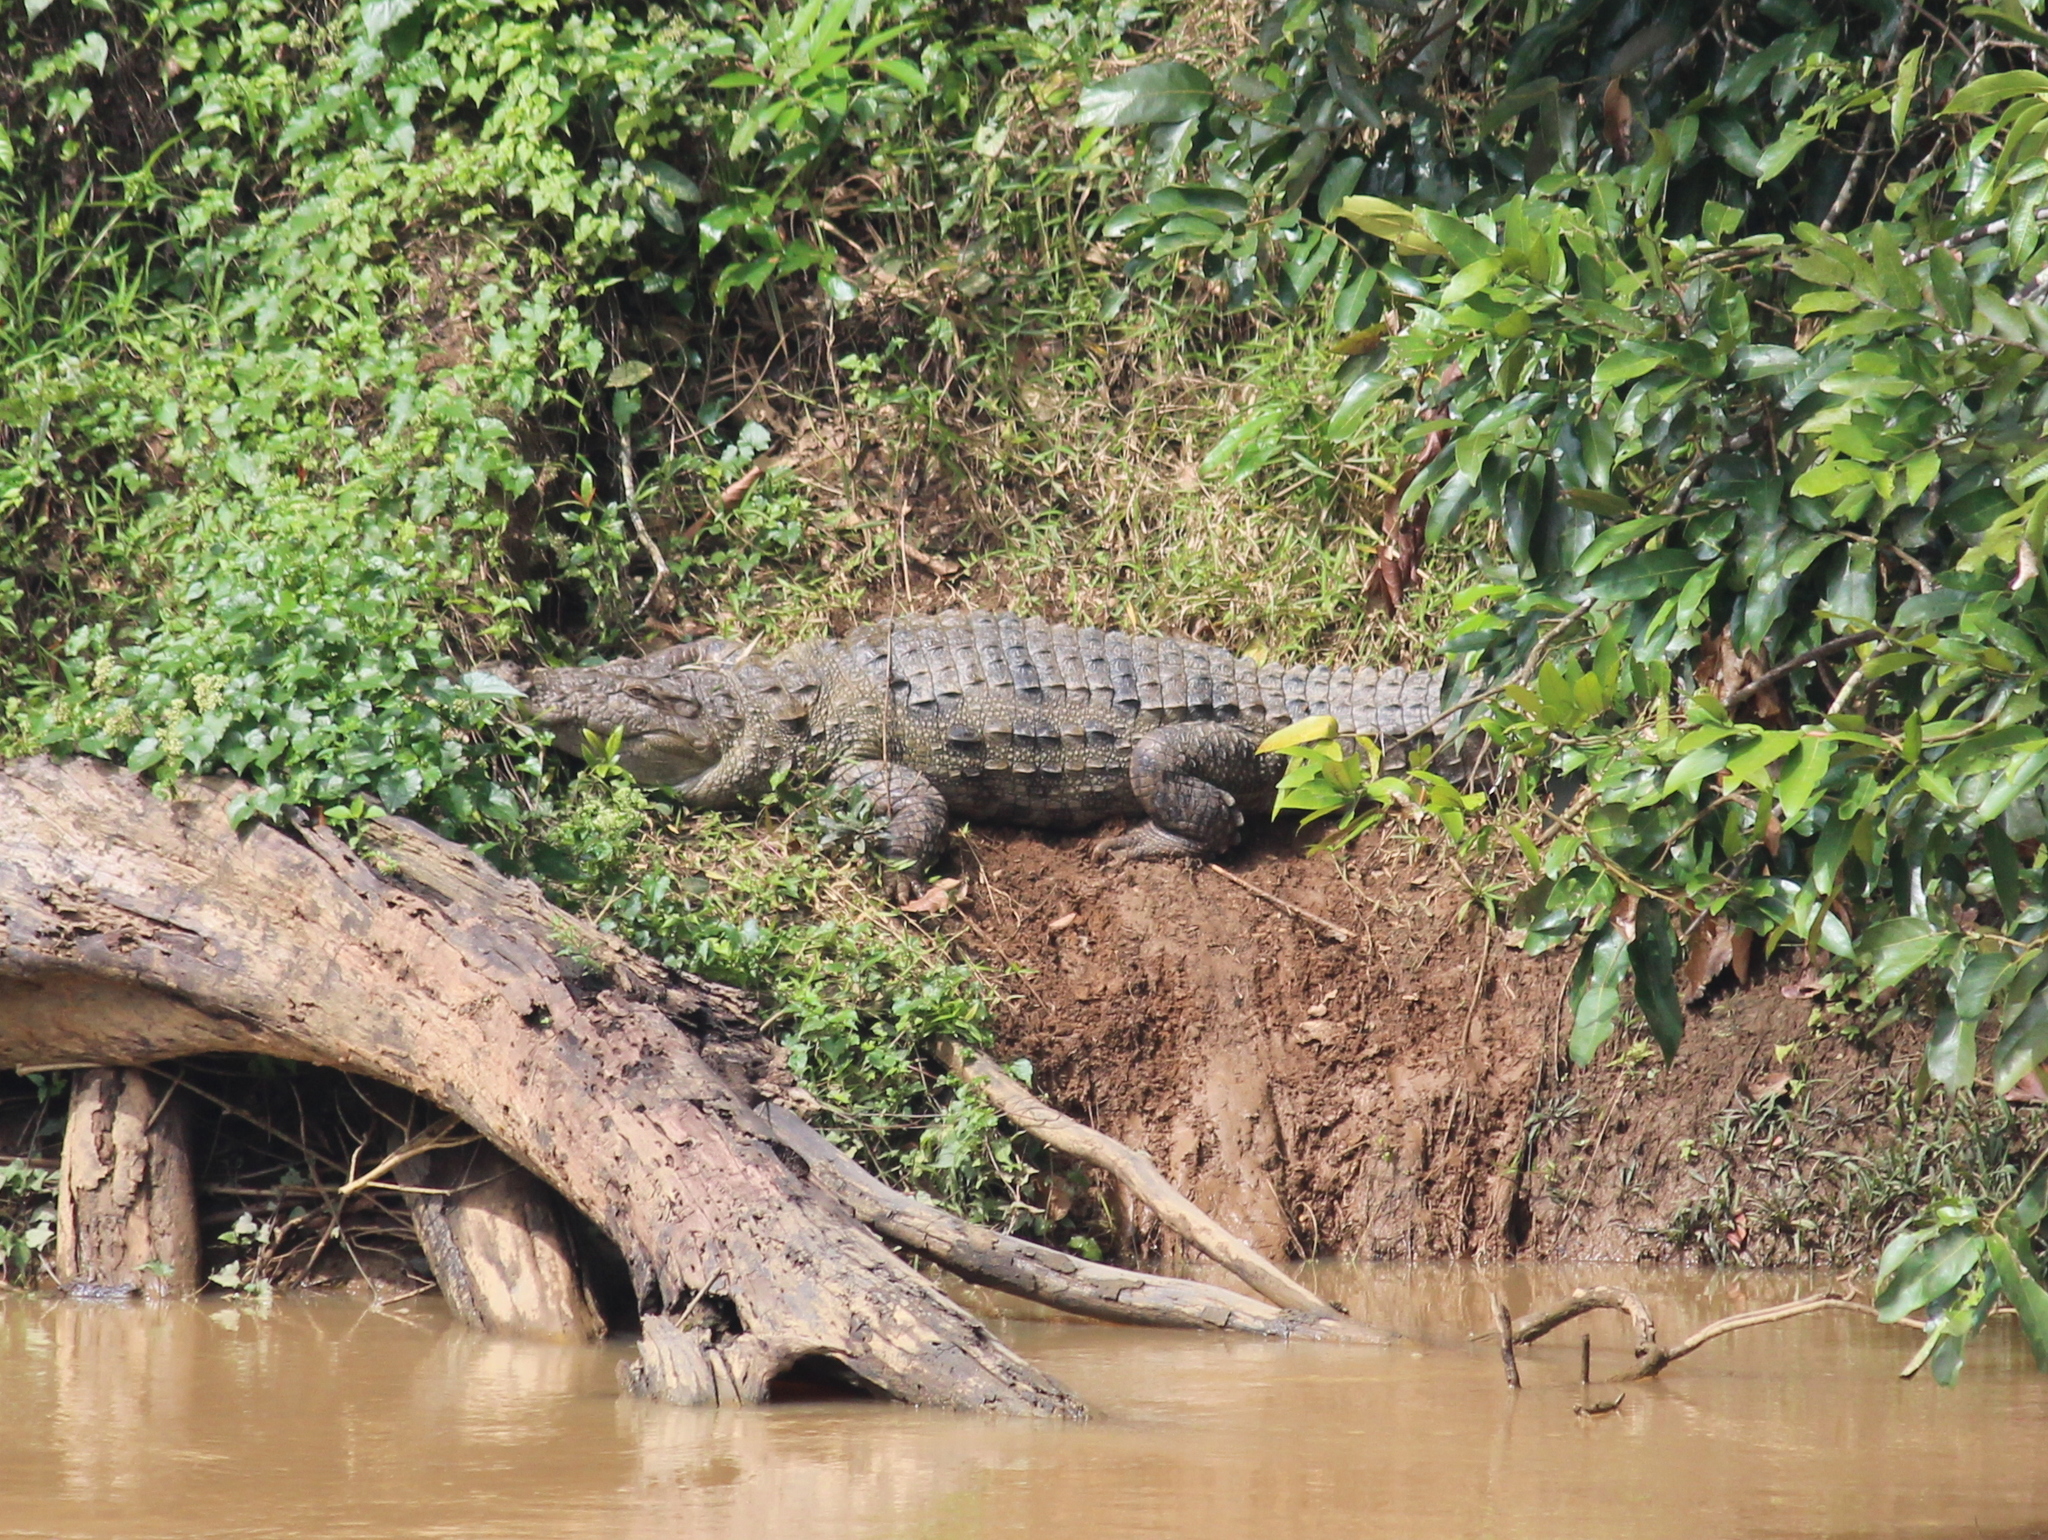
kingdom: Animalia
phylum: Chordata
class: Crocodylia
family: Crocodylidae
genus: Crocodylus
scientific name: Crocodylus palustris
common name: Mugger crocodile
